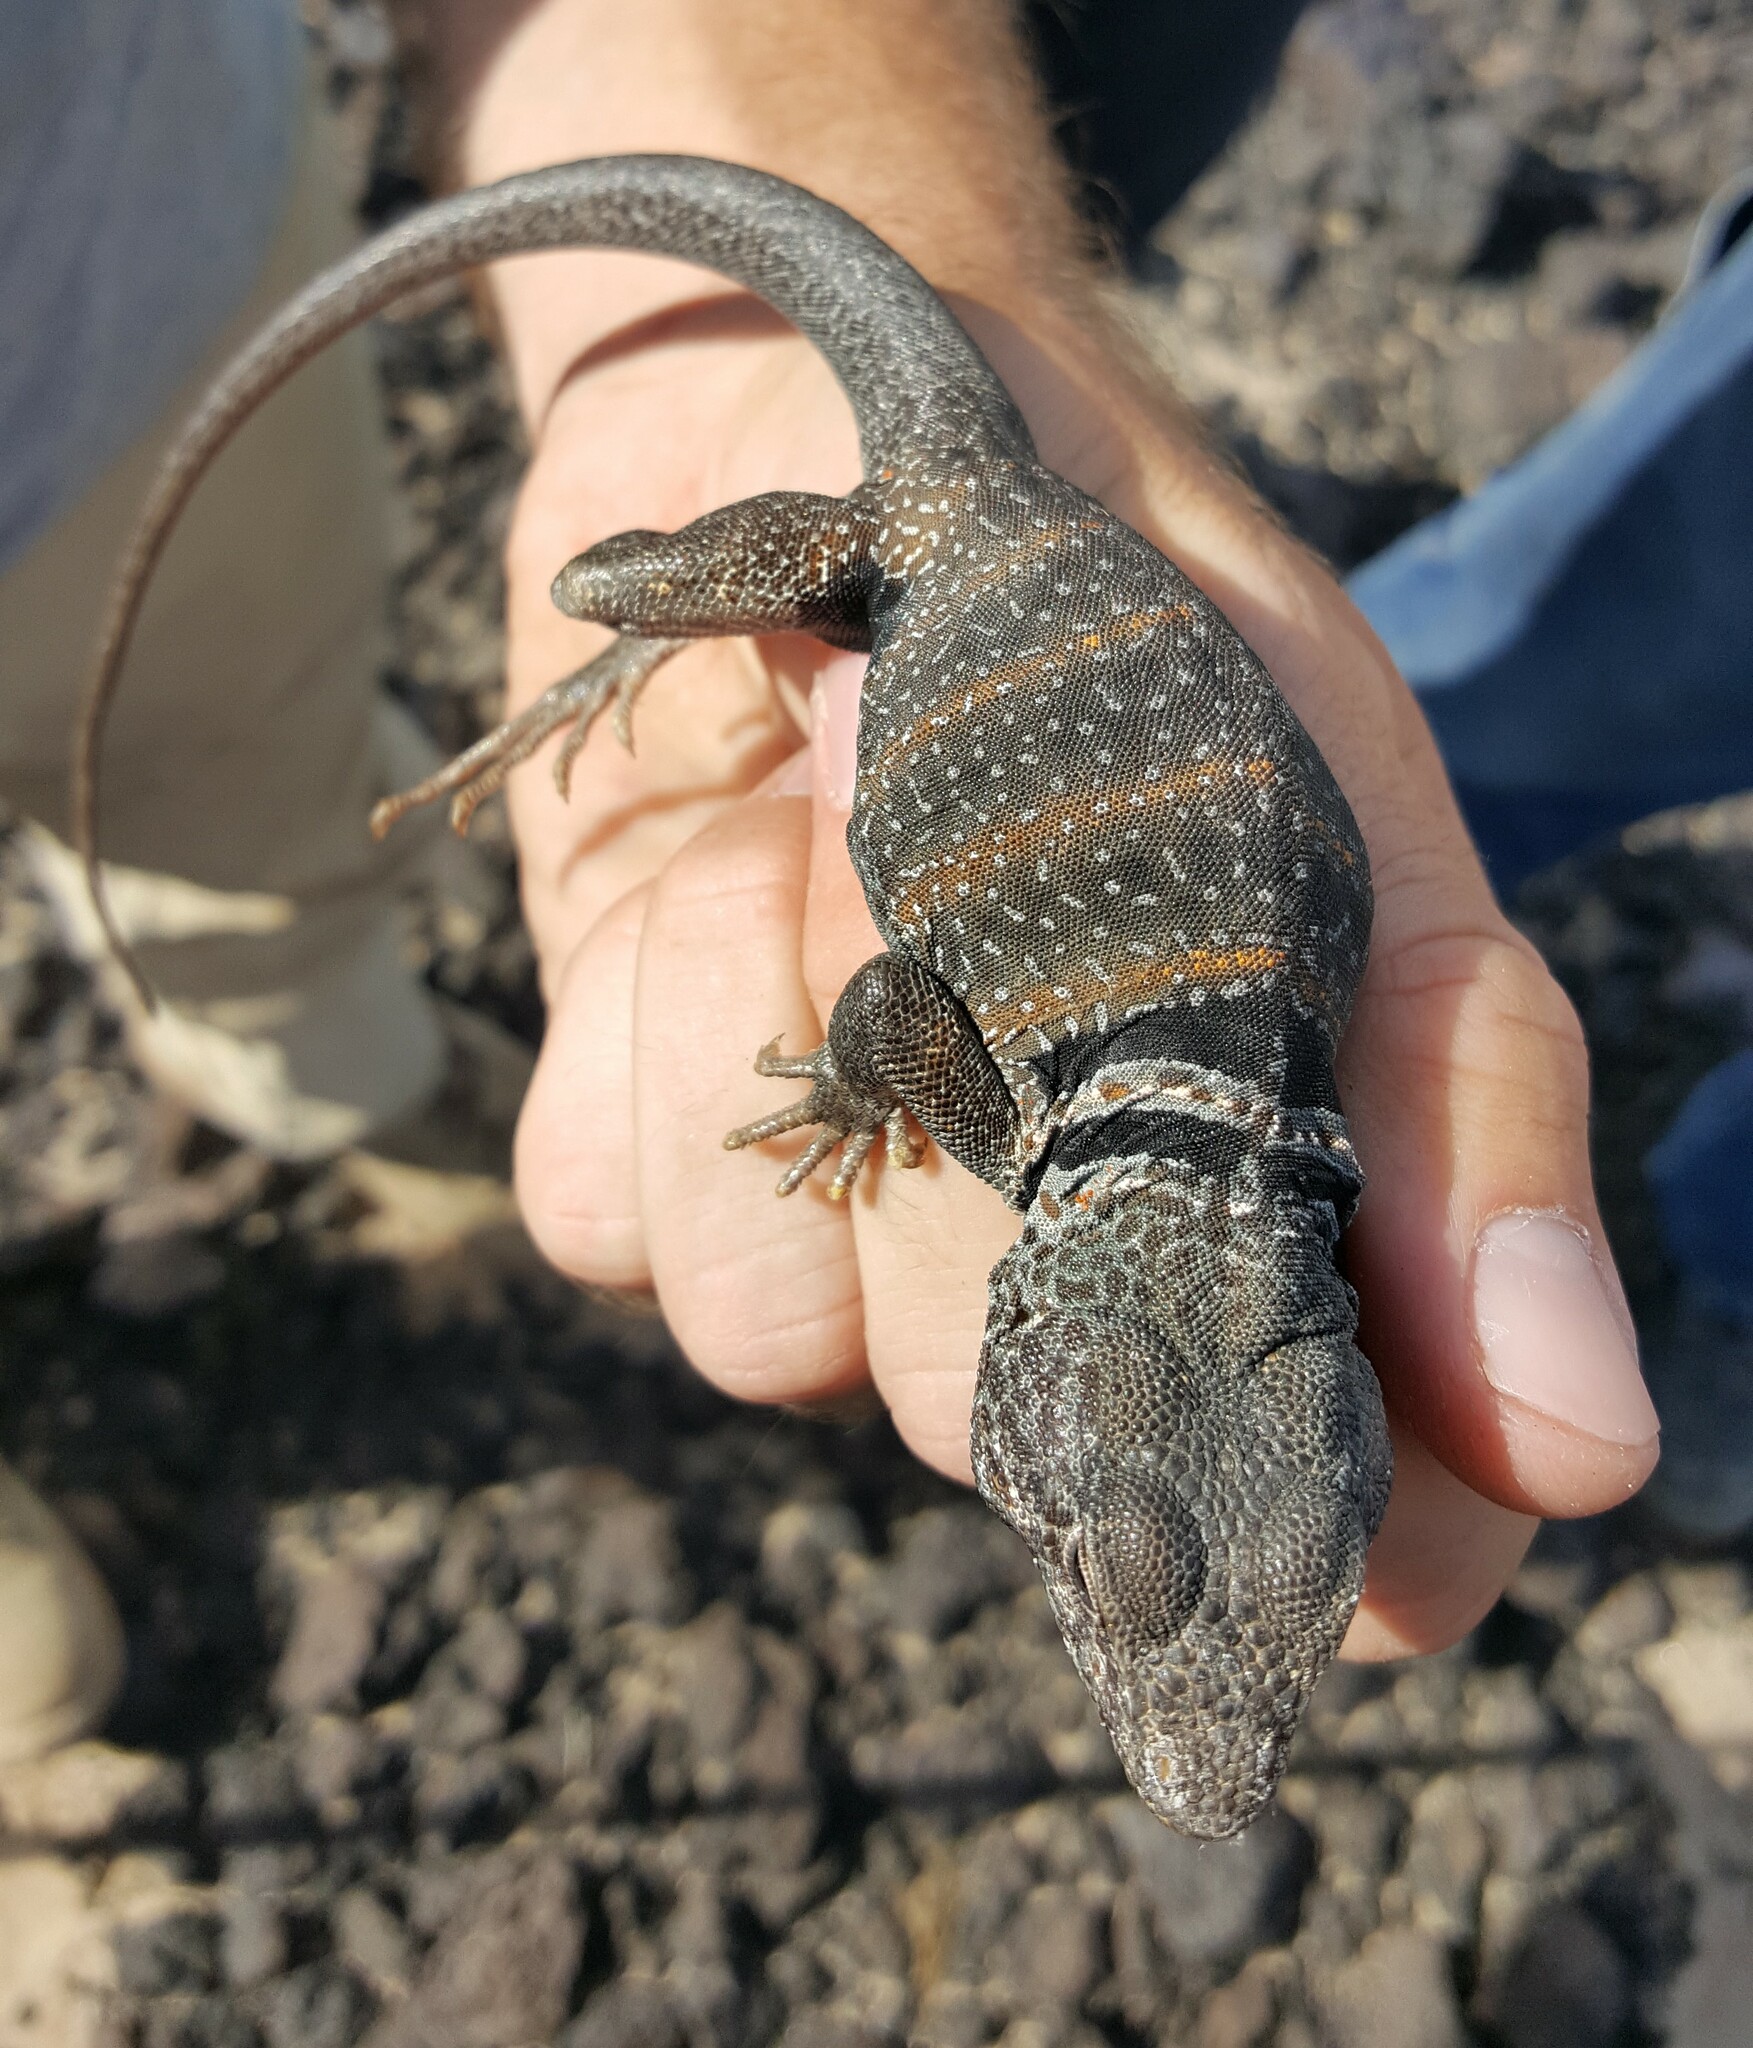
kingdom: Animalia
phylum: Chordata
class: Squamata
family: Crotaphytidae
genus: Crotaphytus
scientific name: Crotaphytus bicinctores
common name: Mojave black-collared lizard
